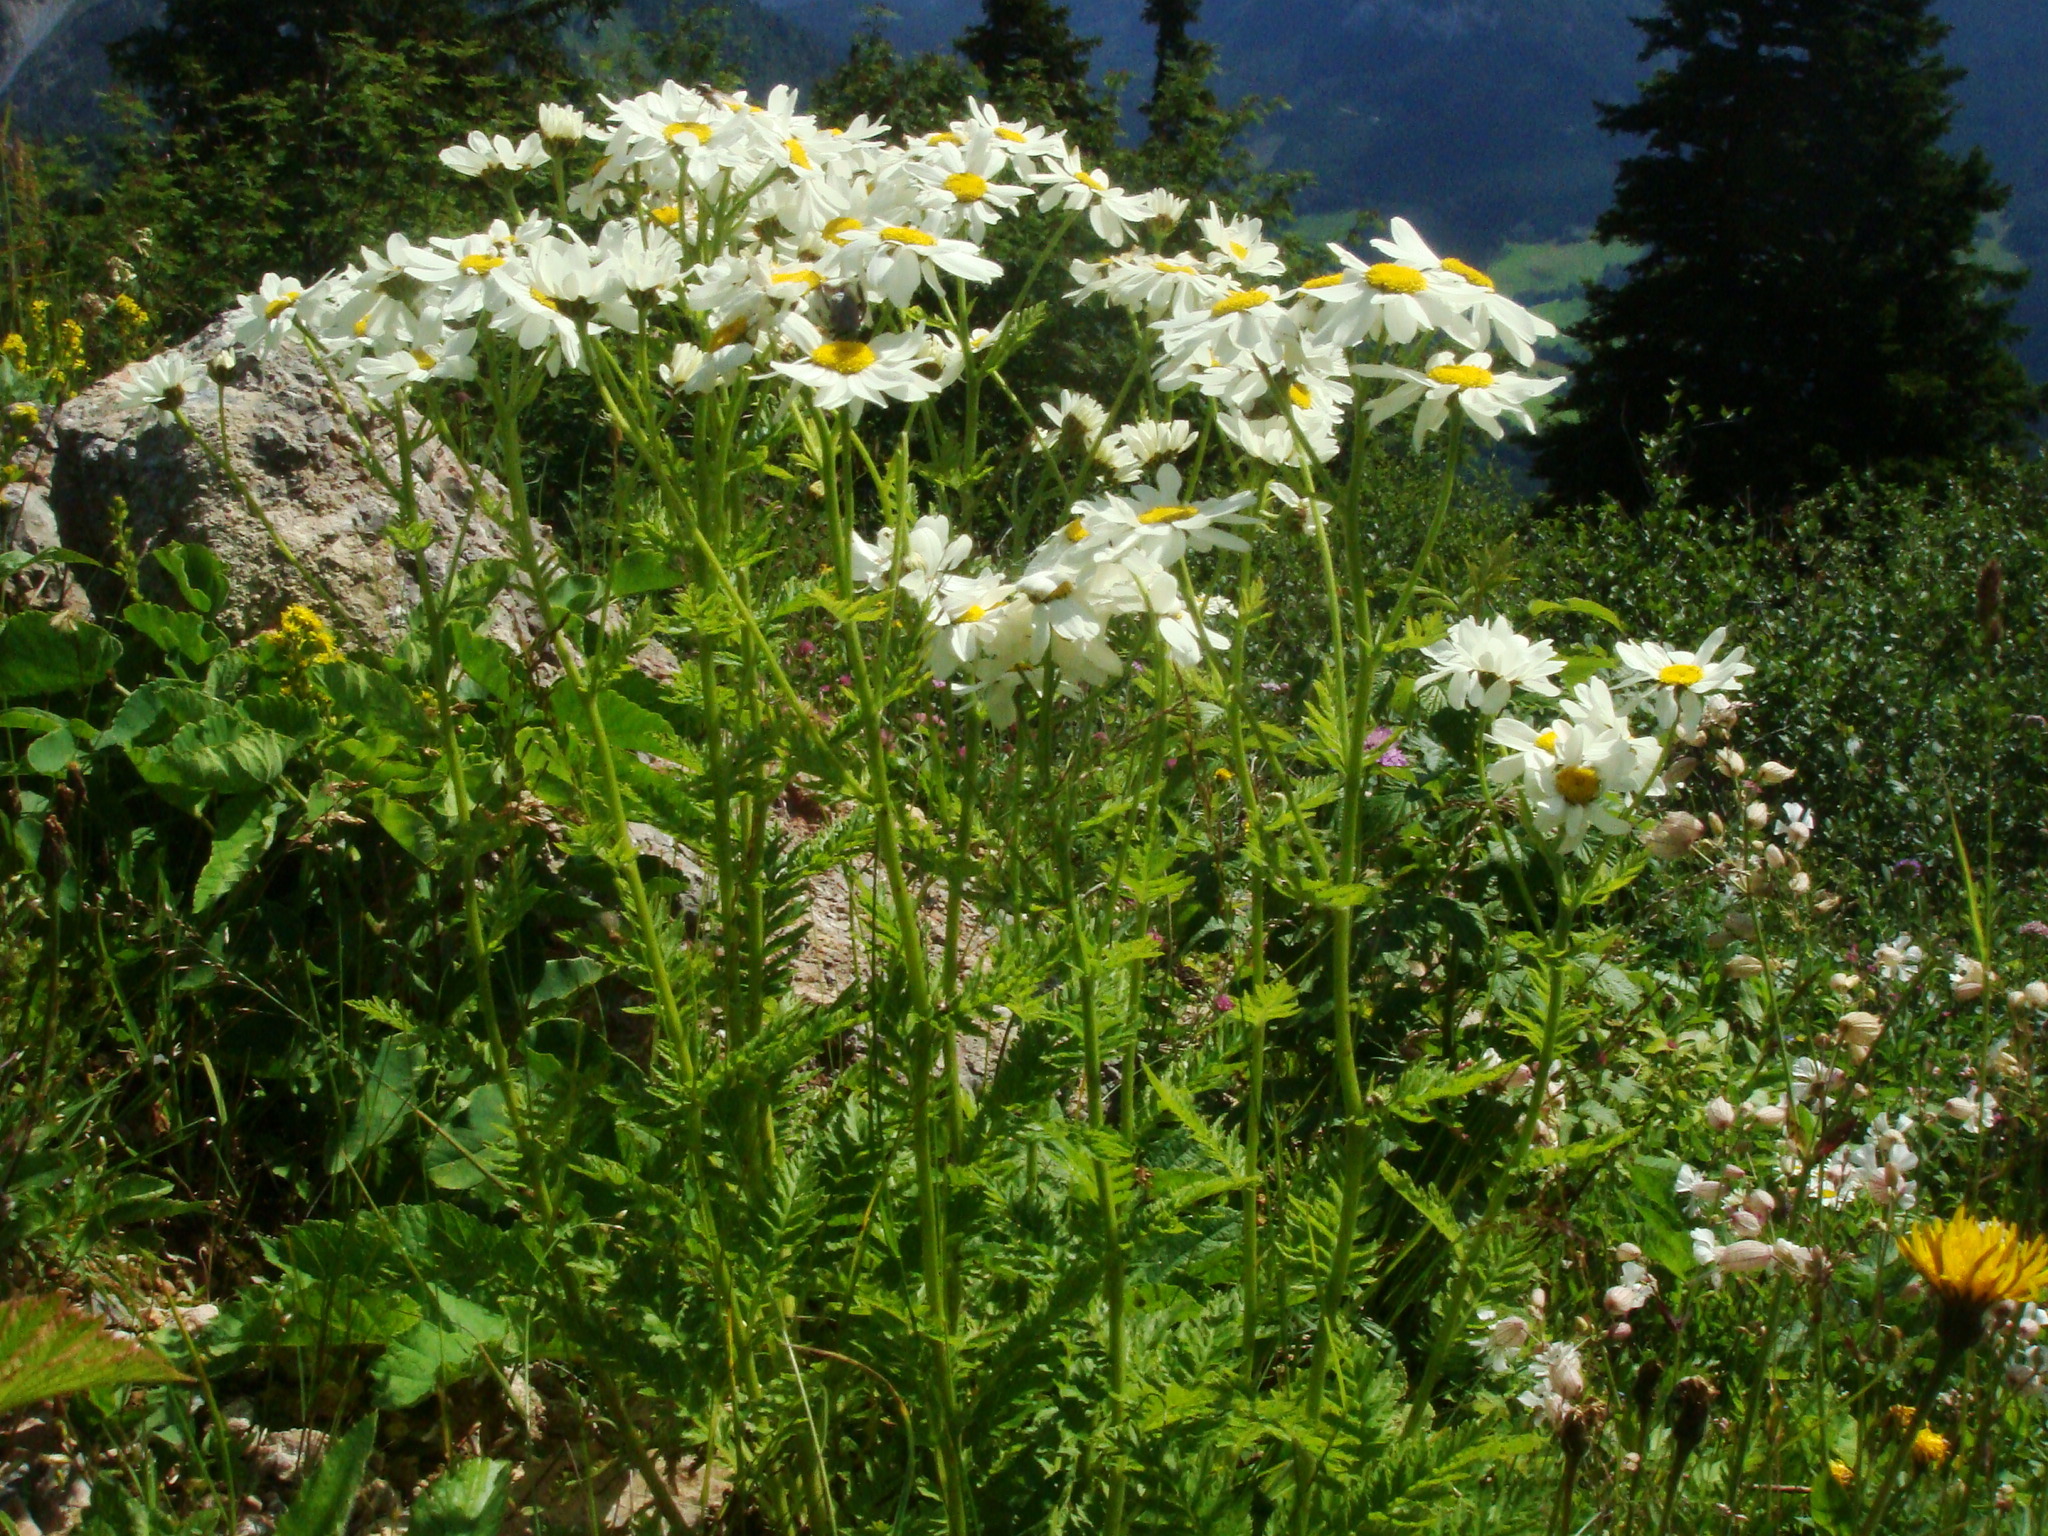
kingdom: Plantae
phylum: Tracheophyta
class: Magnoliopsida
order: Asterales
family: Asteraceae
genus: Tanacetum
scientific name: Tanacetum corymbosum
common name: Scentless feverfew
